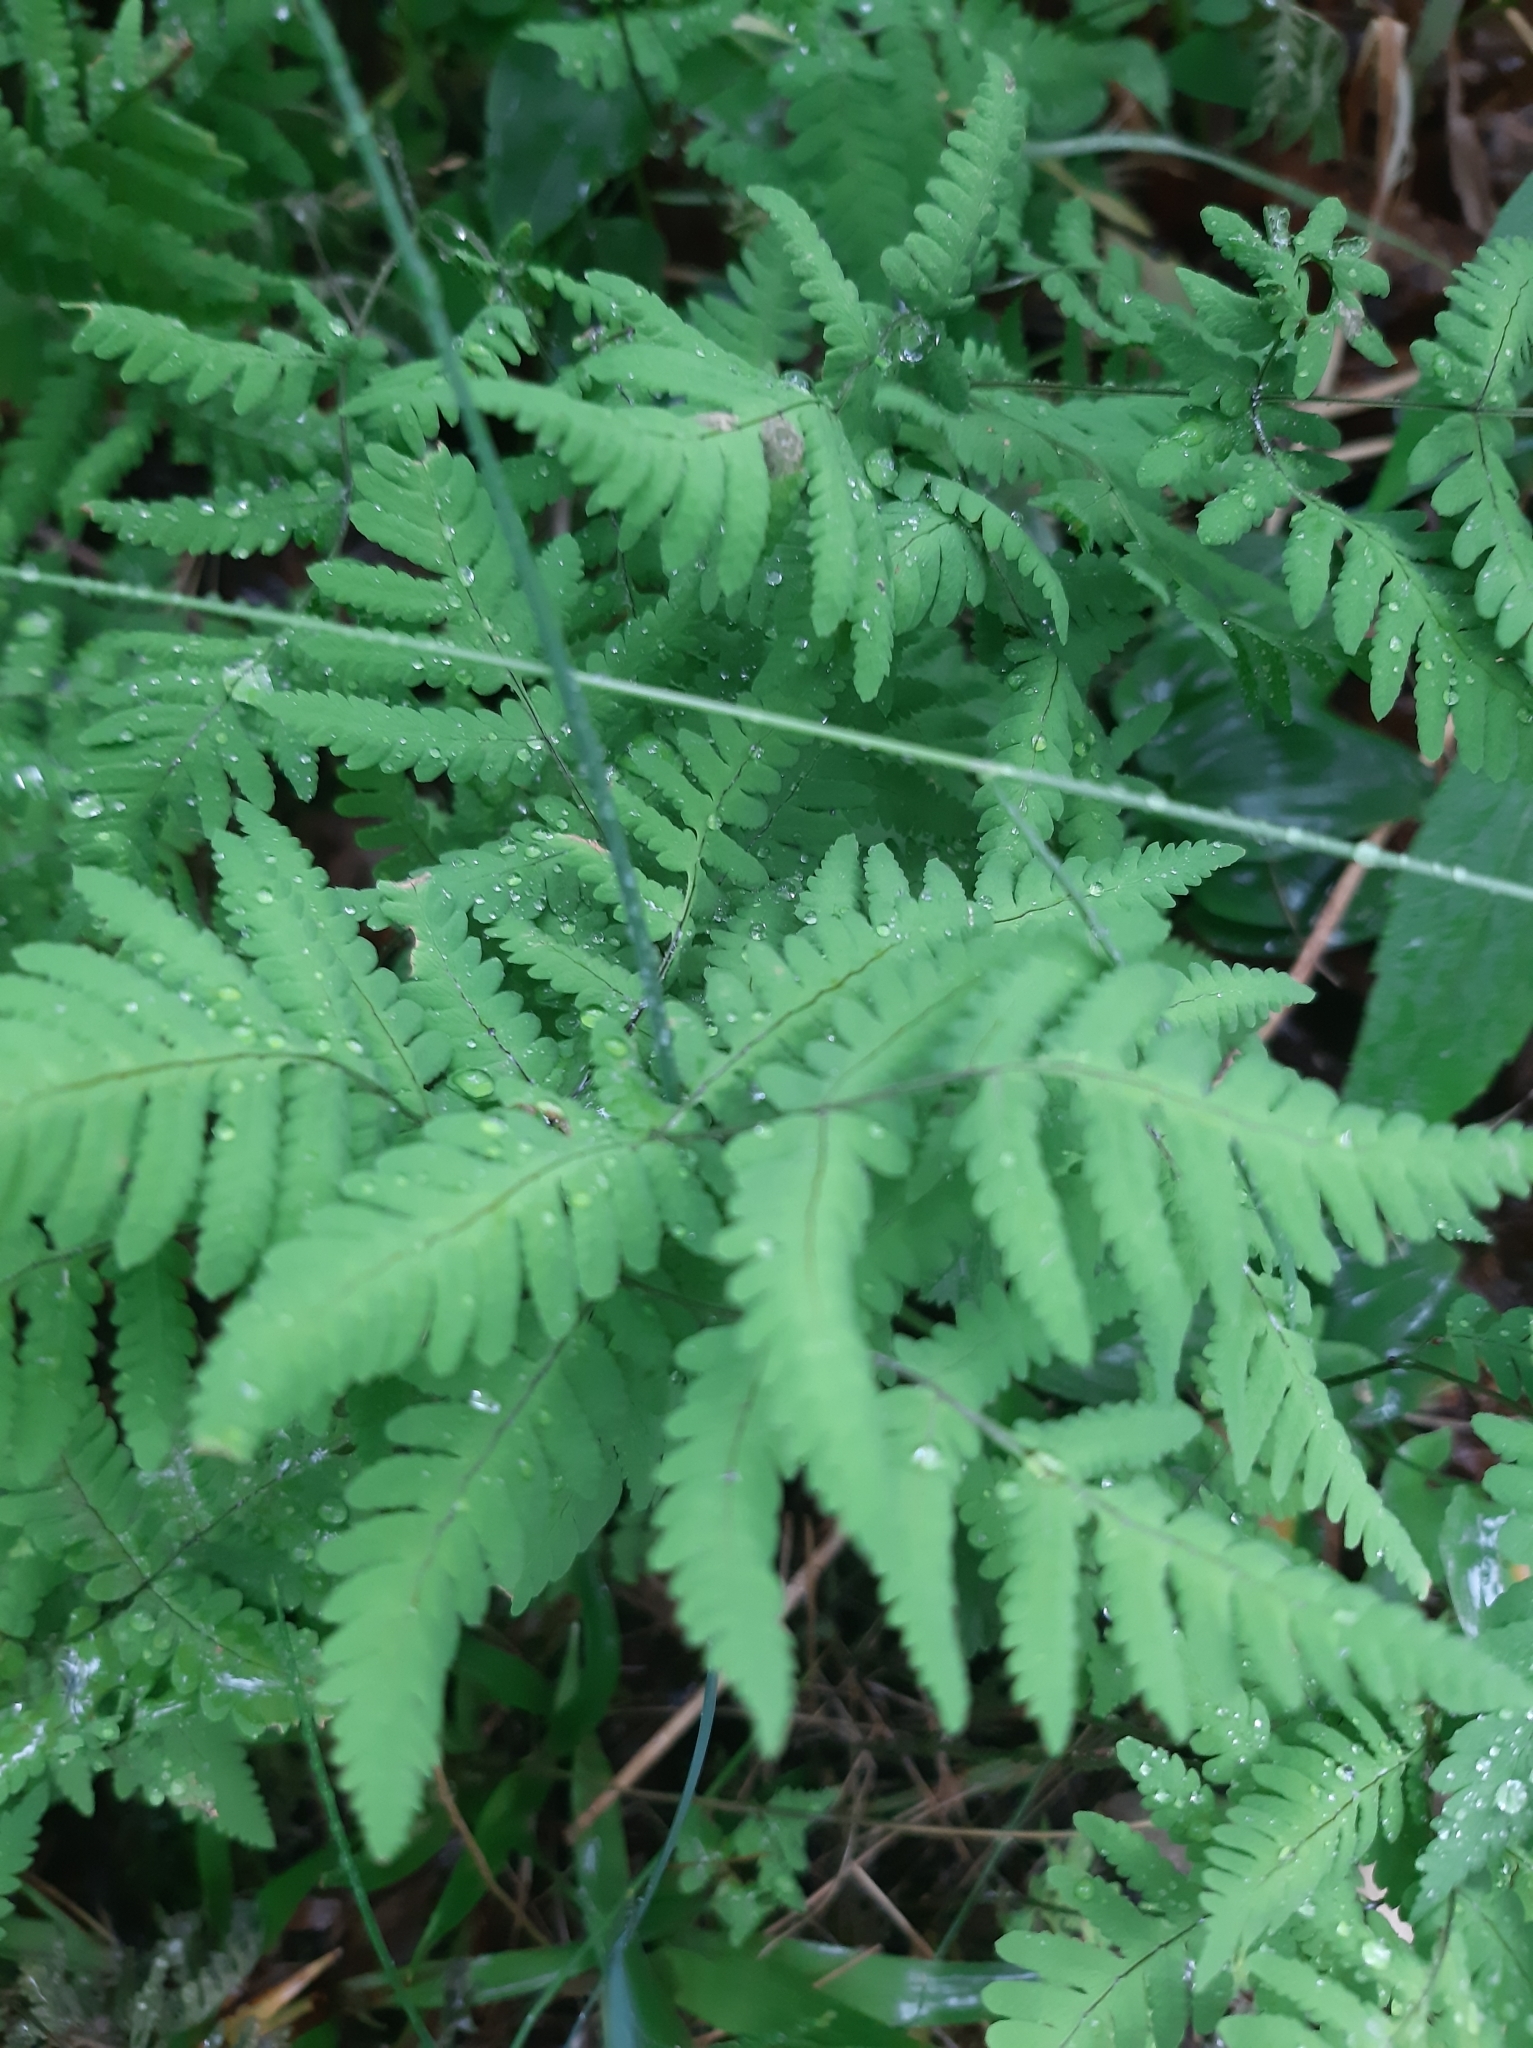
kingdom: Plantae
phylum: Tracheophyta
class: Polypodiopsida
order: Polypodiales
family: Cystopteridaceae
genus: Gymnocarpium
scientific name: Gymnocarpium dryopteris
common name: Oak fern
